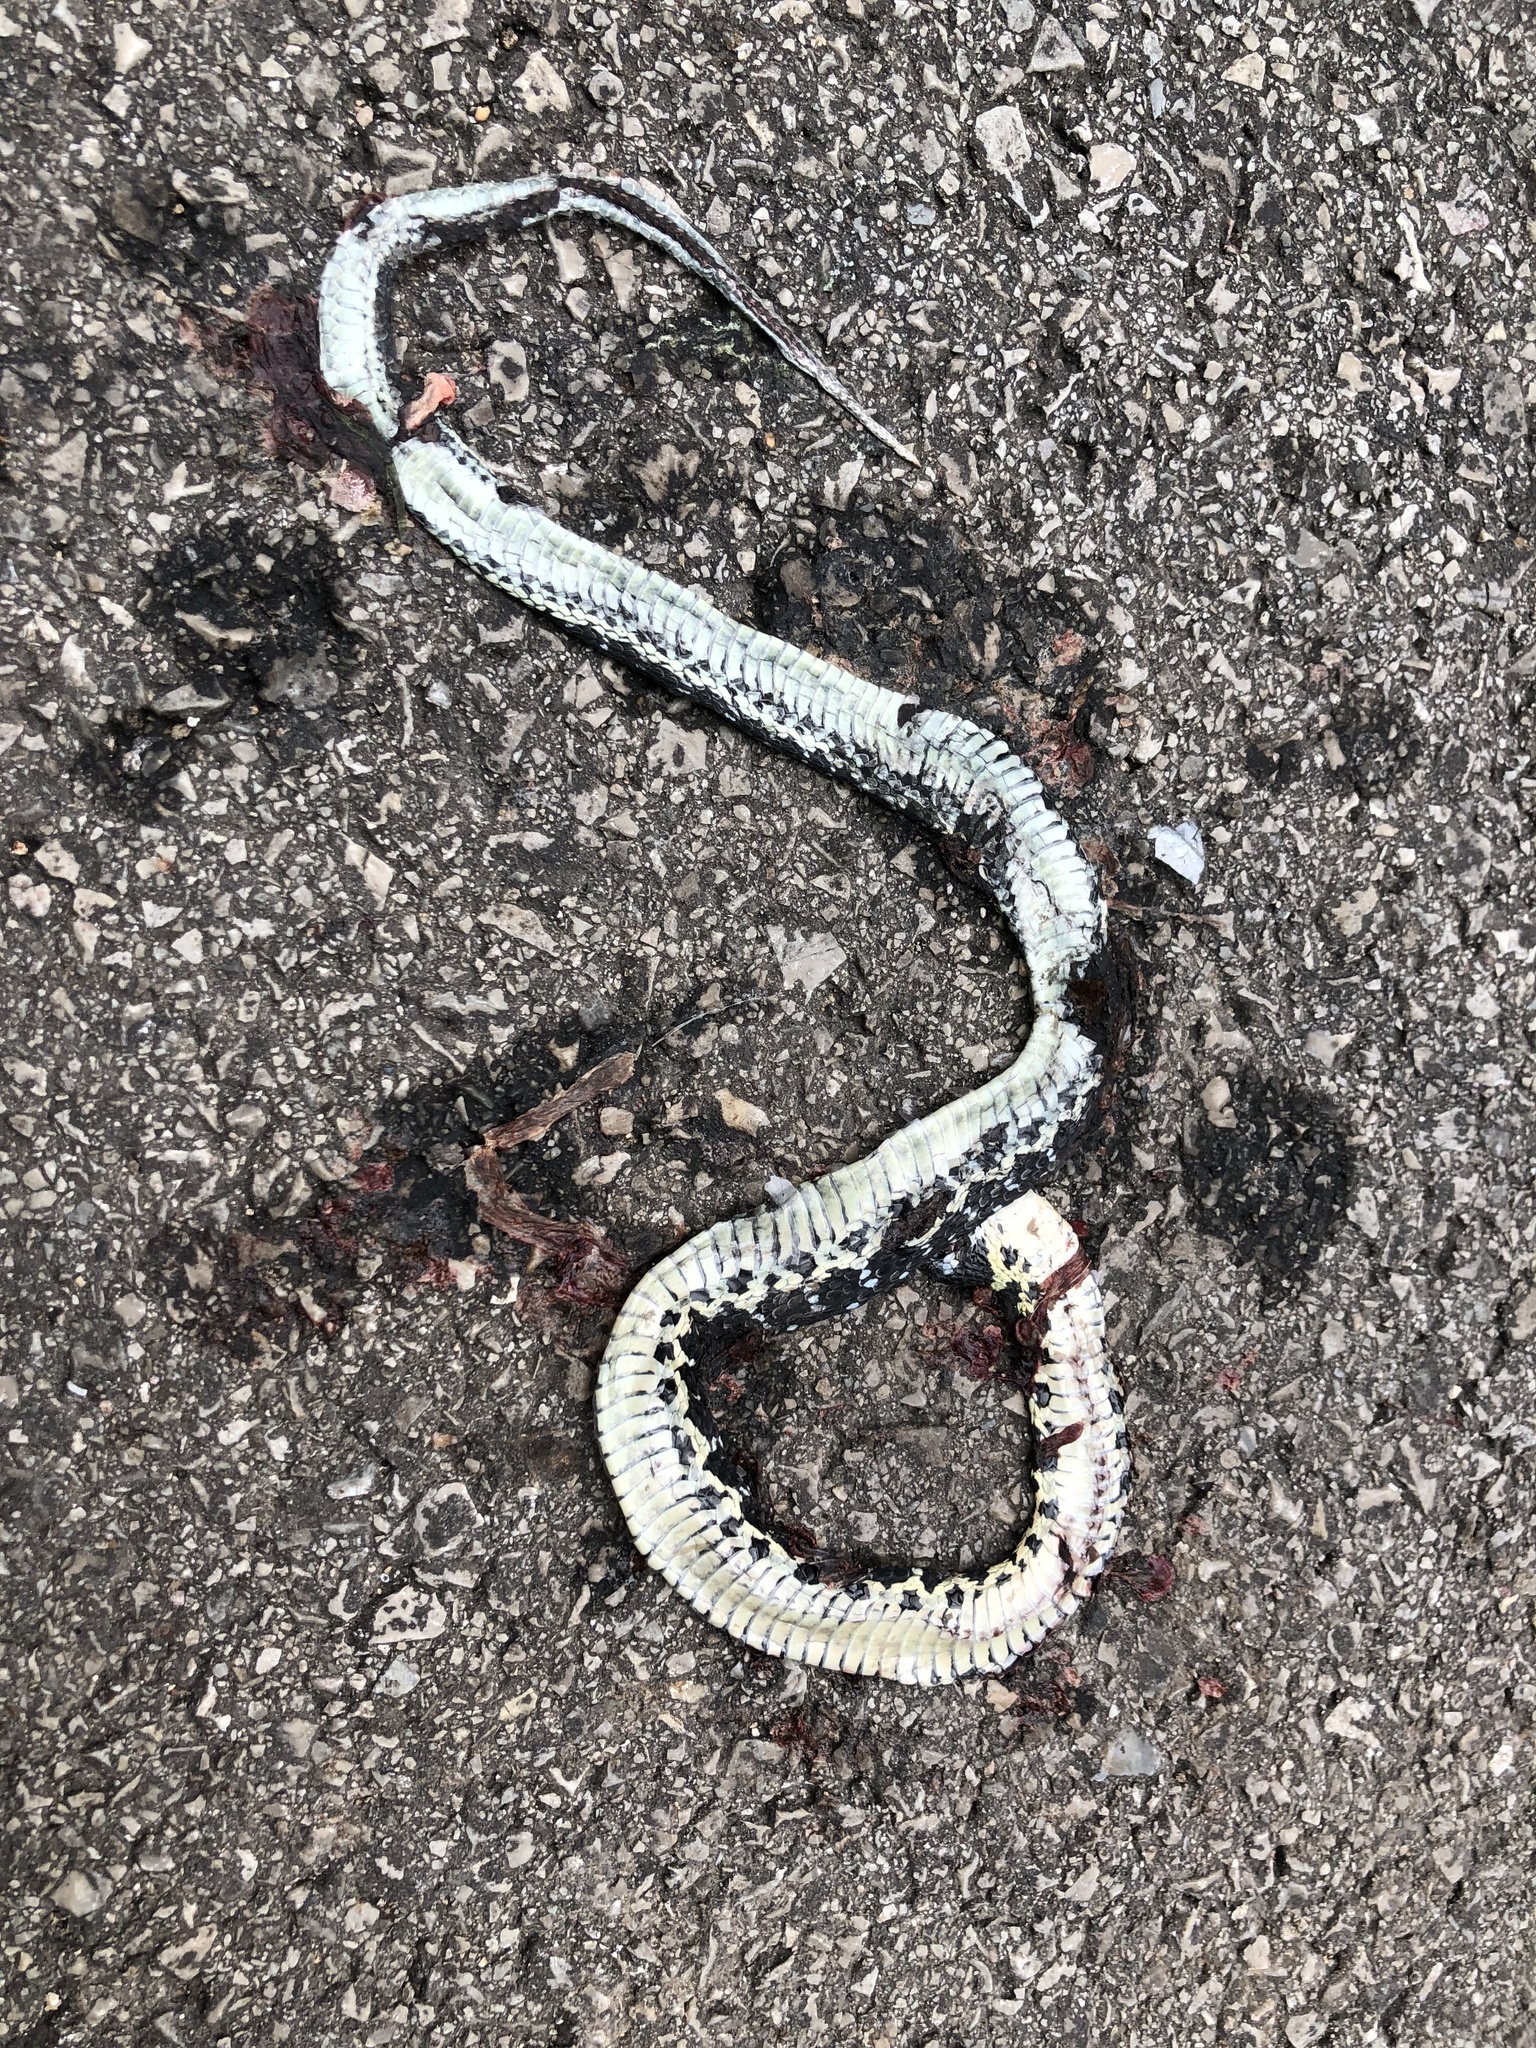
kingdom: Animalia
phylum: Chordata
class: Squamata
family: Colubridae
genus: Thamnophis
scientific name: Thamnophis cyrtopsis
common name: Black-necked gartersnake
